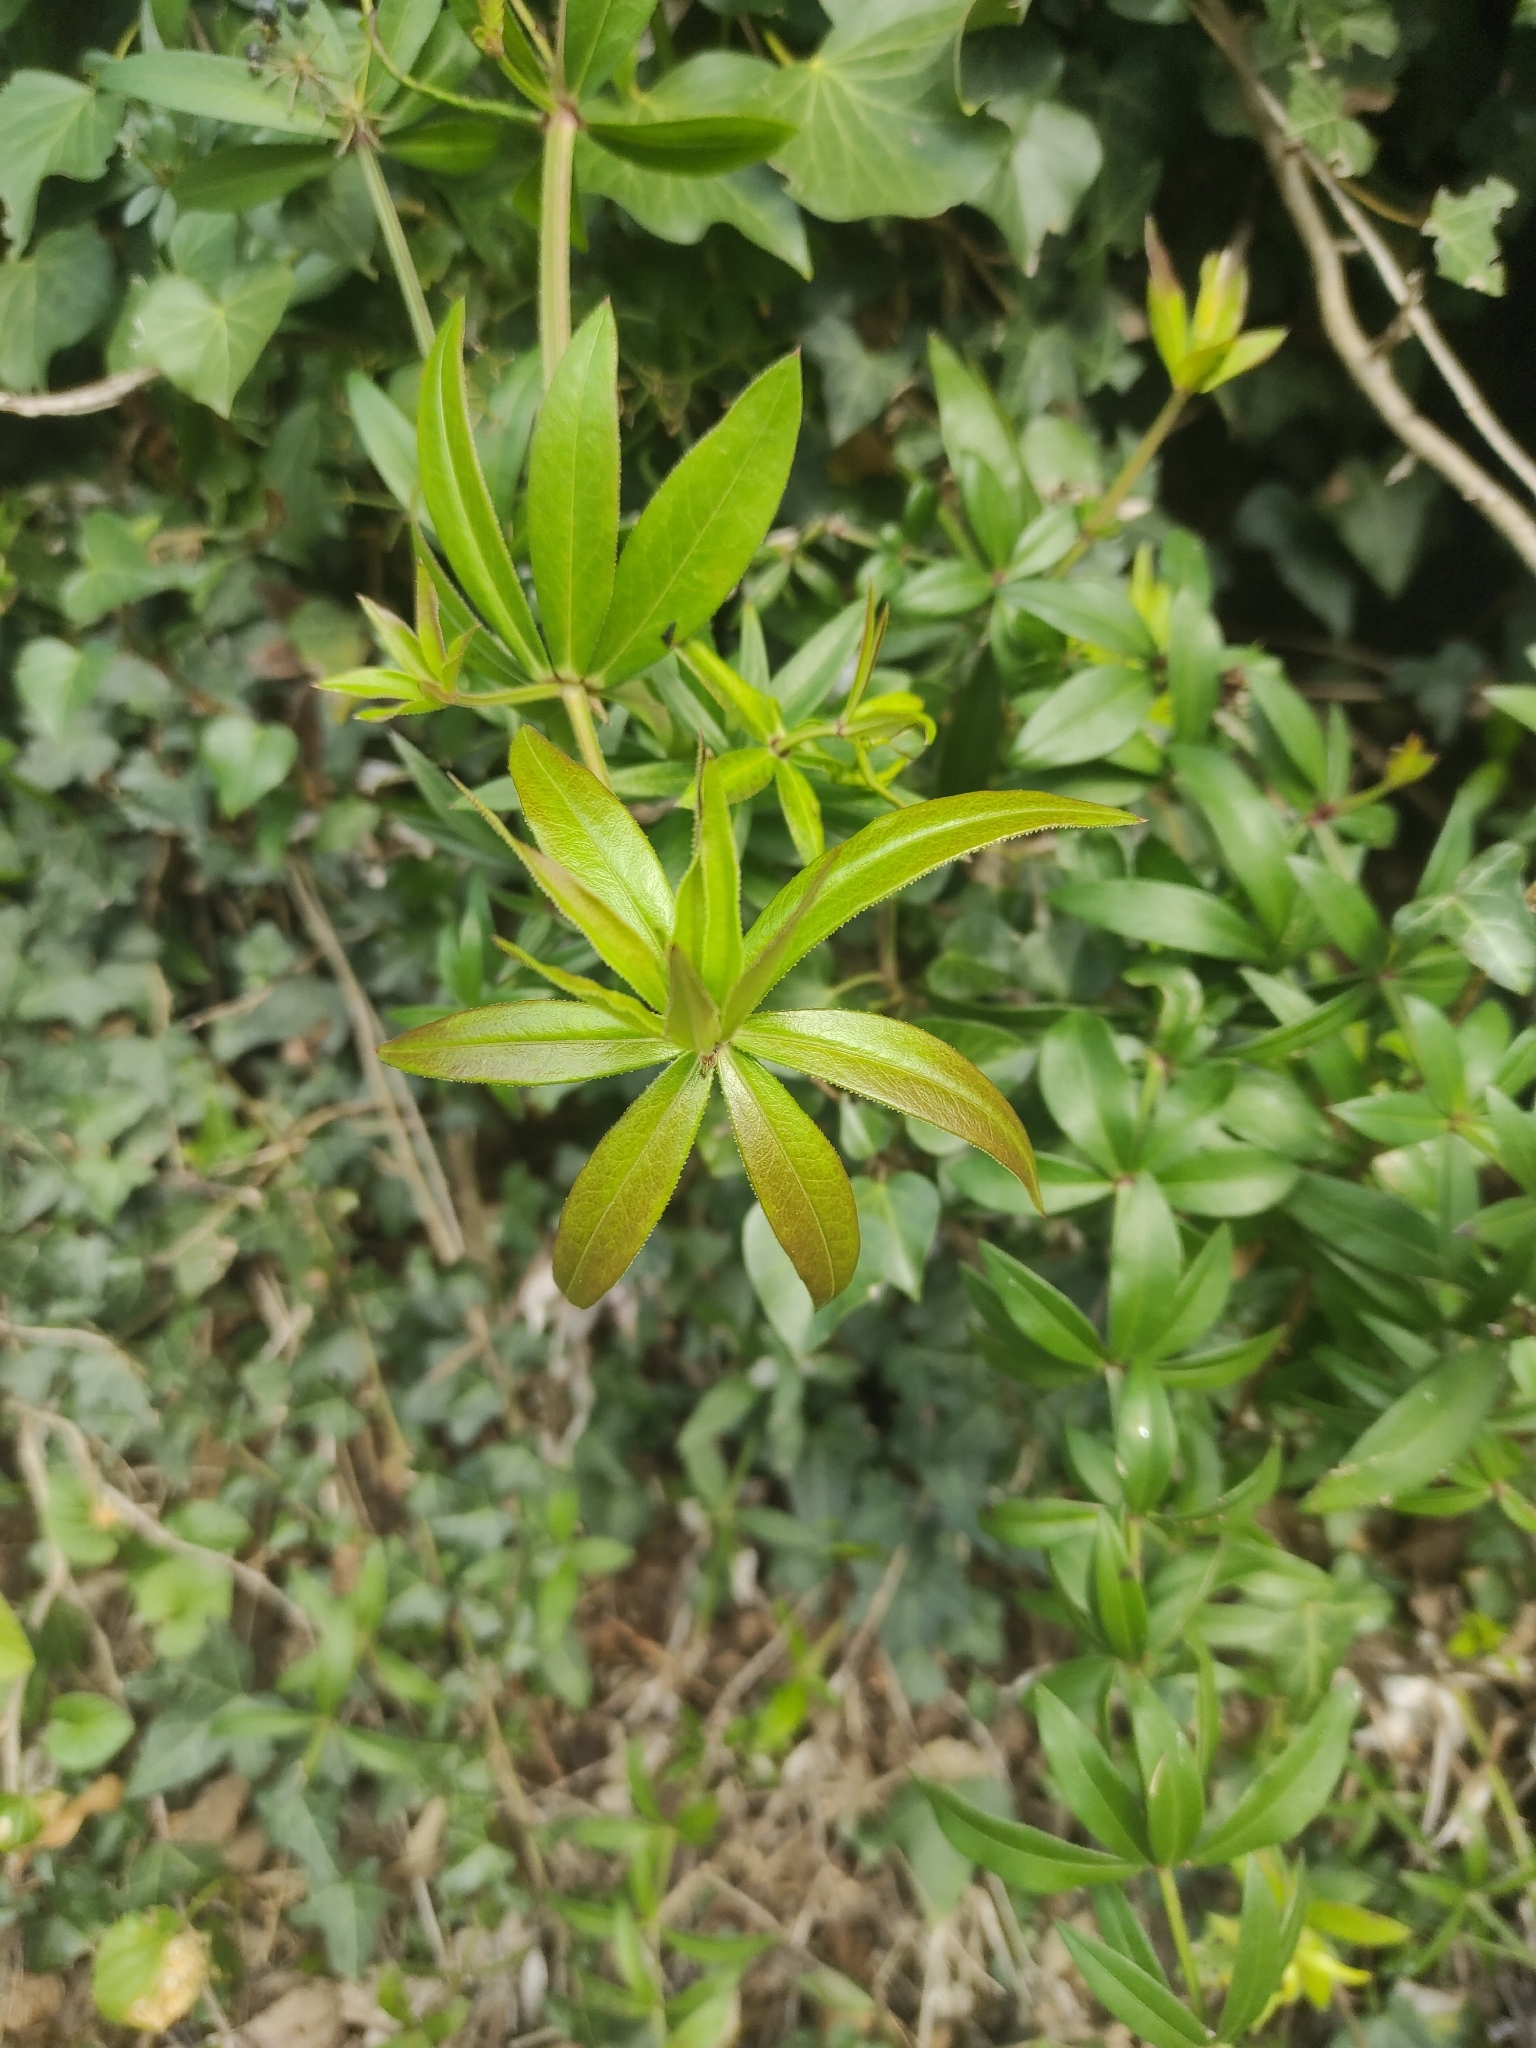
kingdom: Plantae
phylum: Tracheophyta
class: Magnoliopsida
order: Gentianales
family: Rubiaceae
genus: Rubia
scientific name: Rubia peregrina
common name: Wild madder
